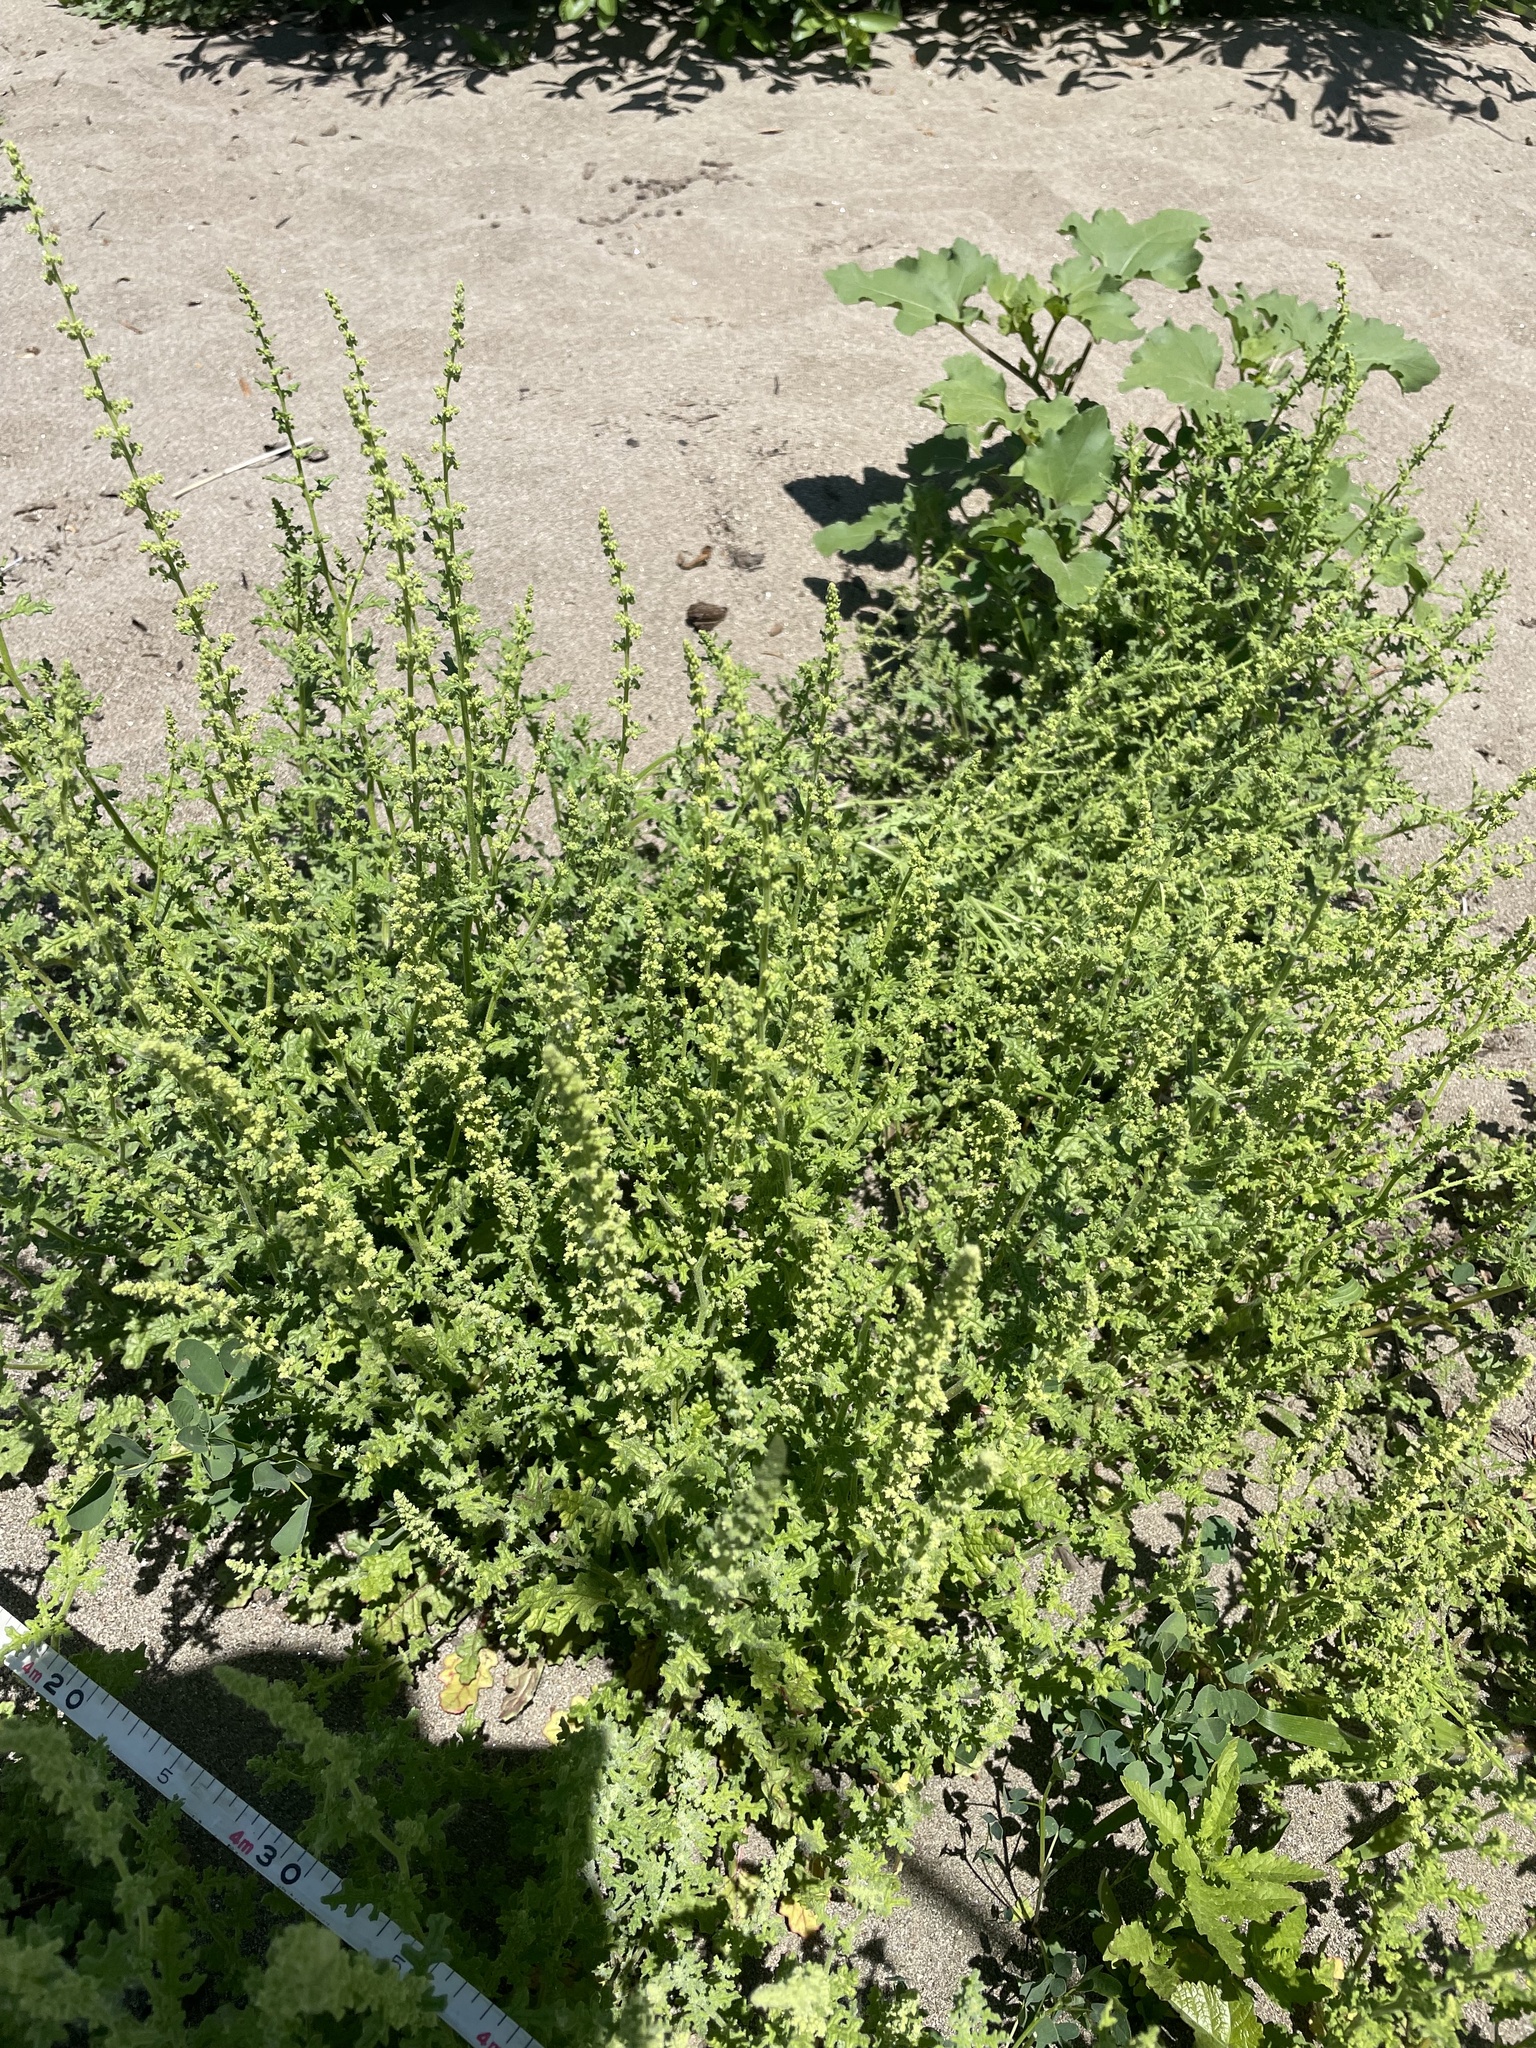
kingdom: Plantae
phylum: Tracheophyta
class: Magnoliopsida
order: Caryophyllales
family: Amaranthaceae
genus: Dysphania
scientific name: Dysphania botrys
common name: Feather-geranium
